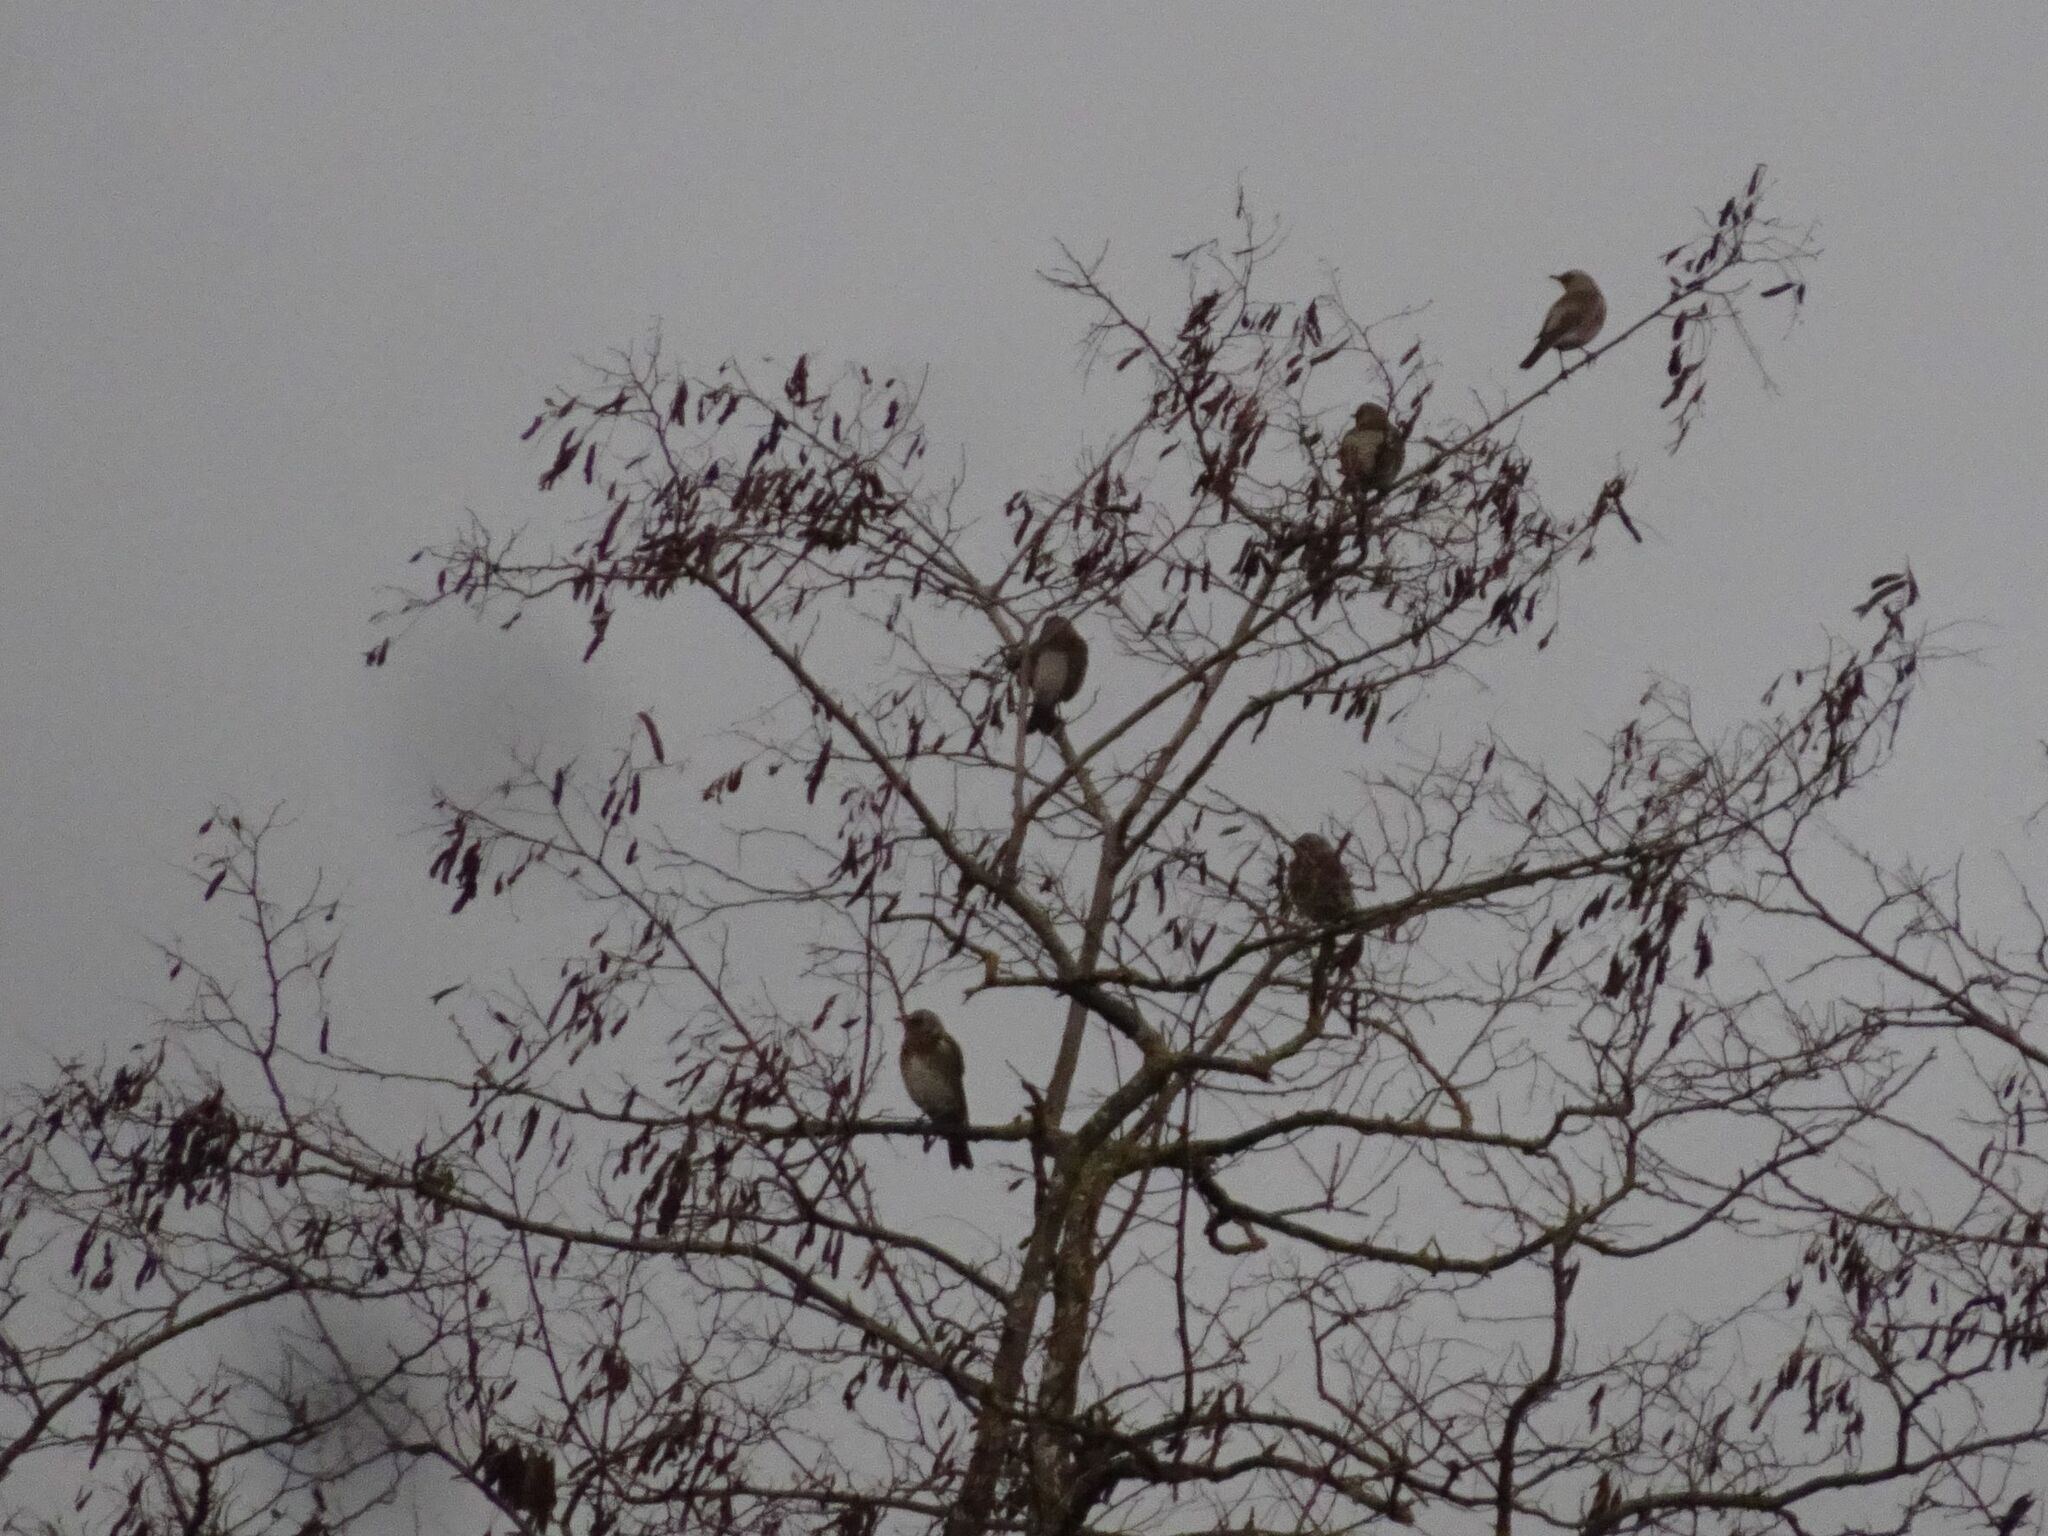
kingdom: Animalia
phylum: Chordata
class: Aves
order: Passeriformes
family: Turdidae
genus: Turdus
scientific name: Turdus pilaris
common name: Fieldfare
